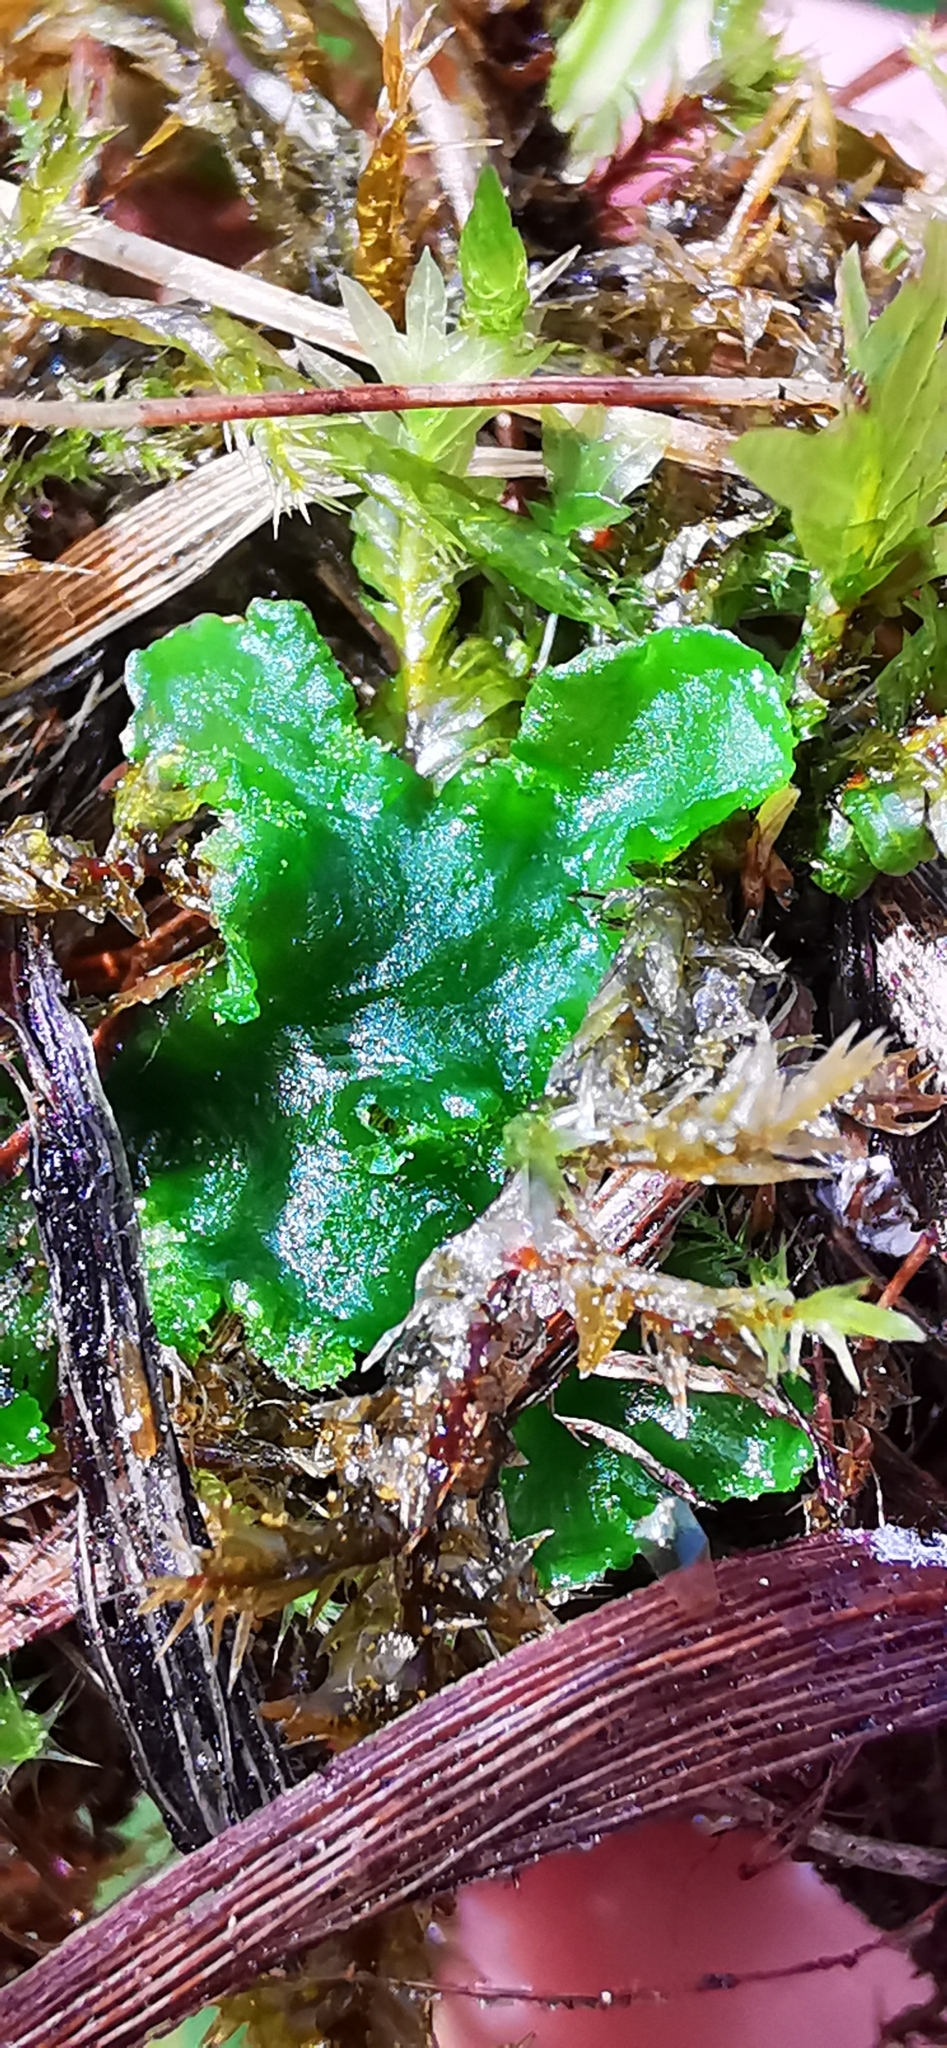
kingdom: Plantae
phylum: Marchantiophyta
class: Jungermanniopsida
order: Metzgeriales
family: Aneuraceae
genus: Aneura
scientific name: Aneura pinguis
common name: Common greasewort
